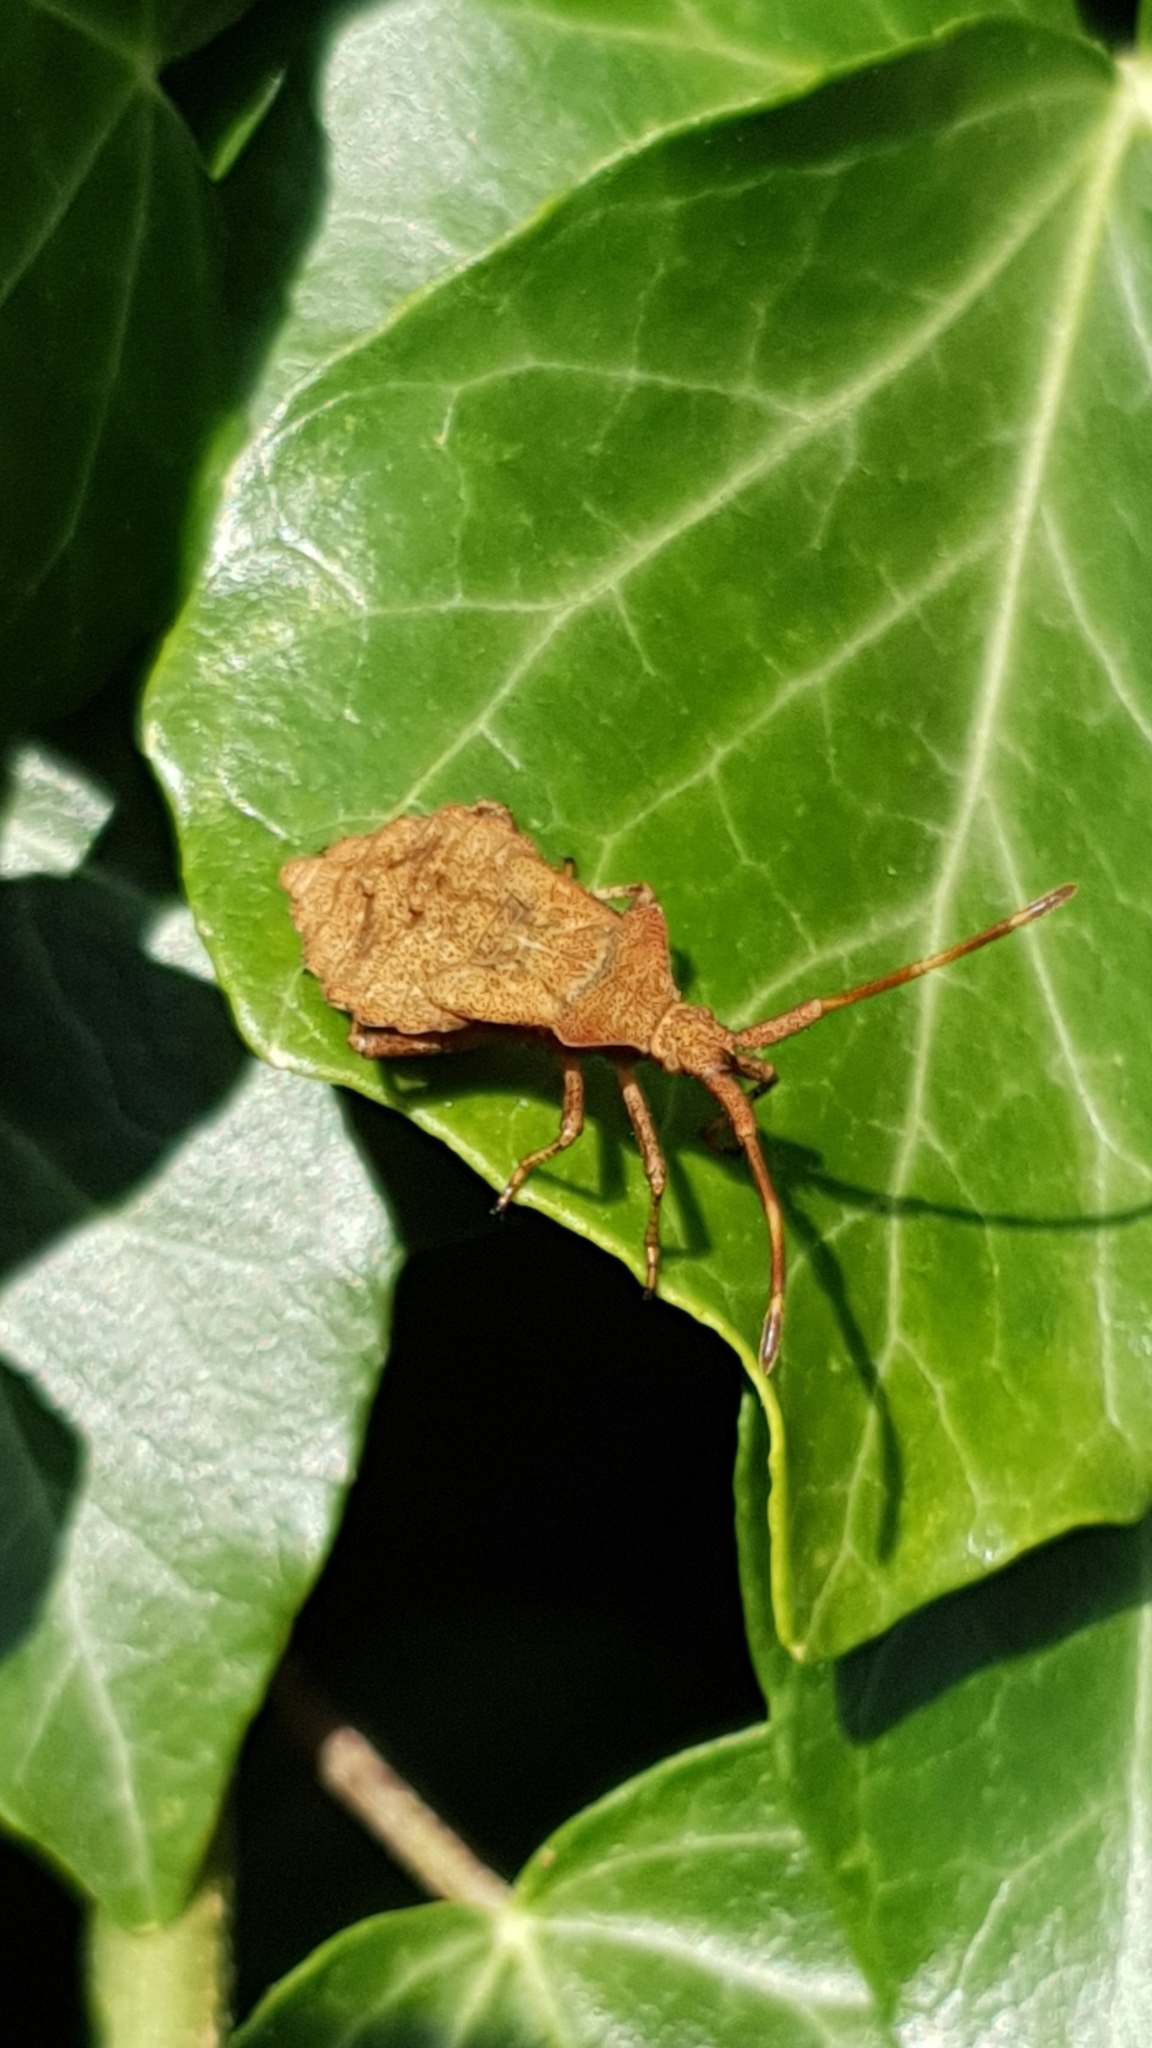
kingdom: Animalia
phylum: Arthropoda
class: Insecta
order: Hemiptera
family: Coreidae
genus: Coreus
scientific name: Coreus marginatus
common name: Dock bug
